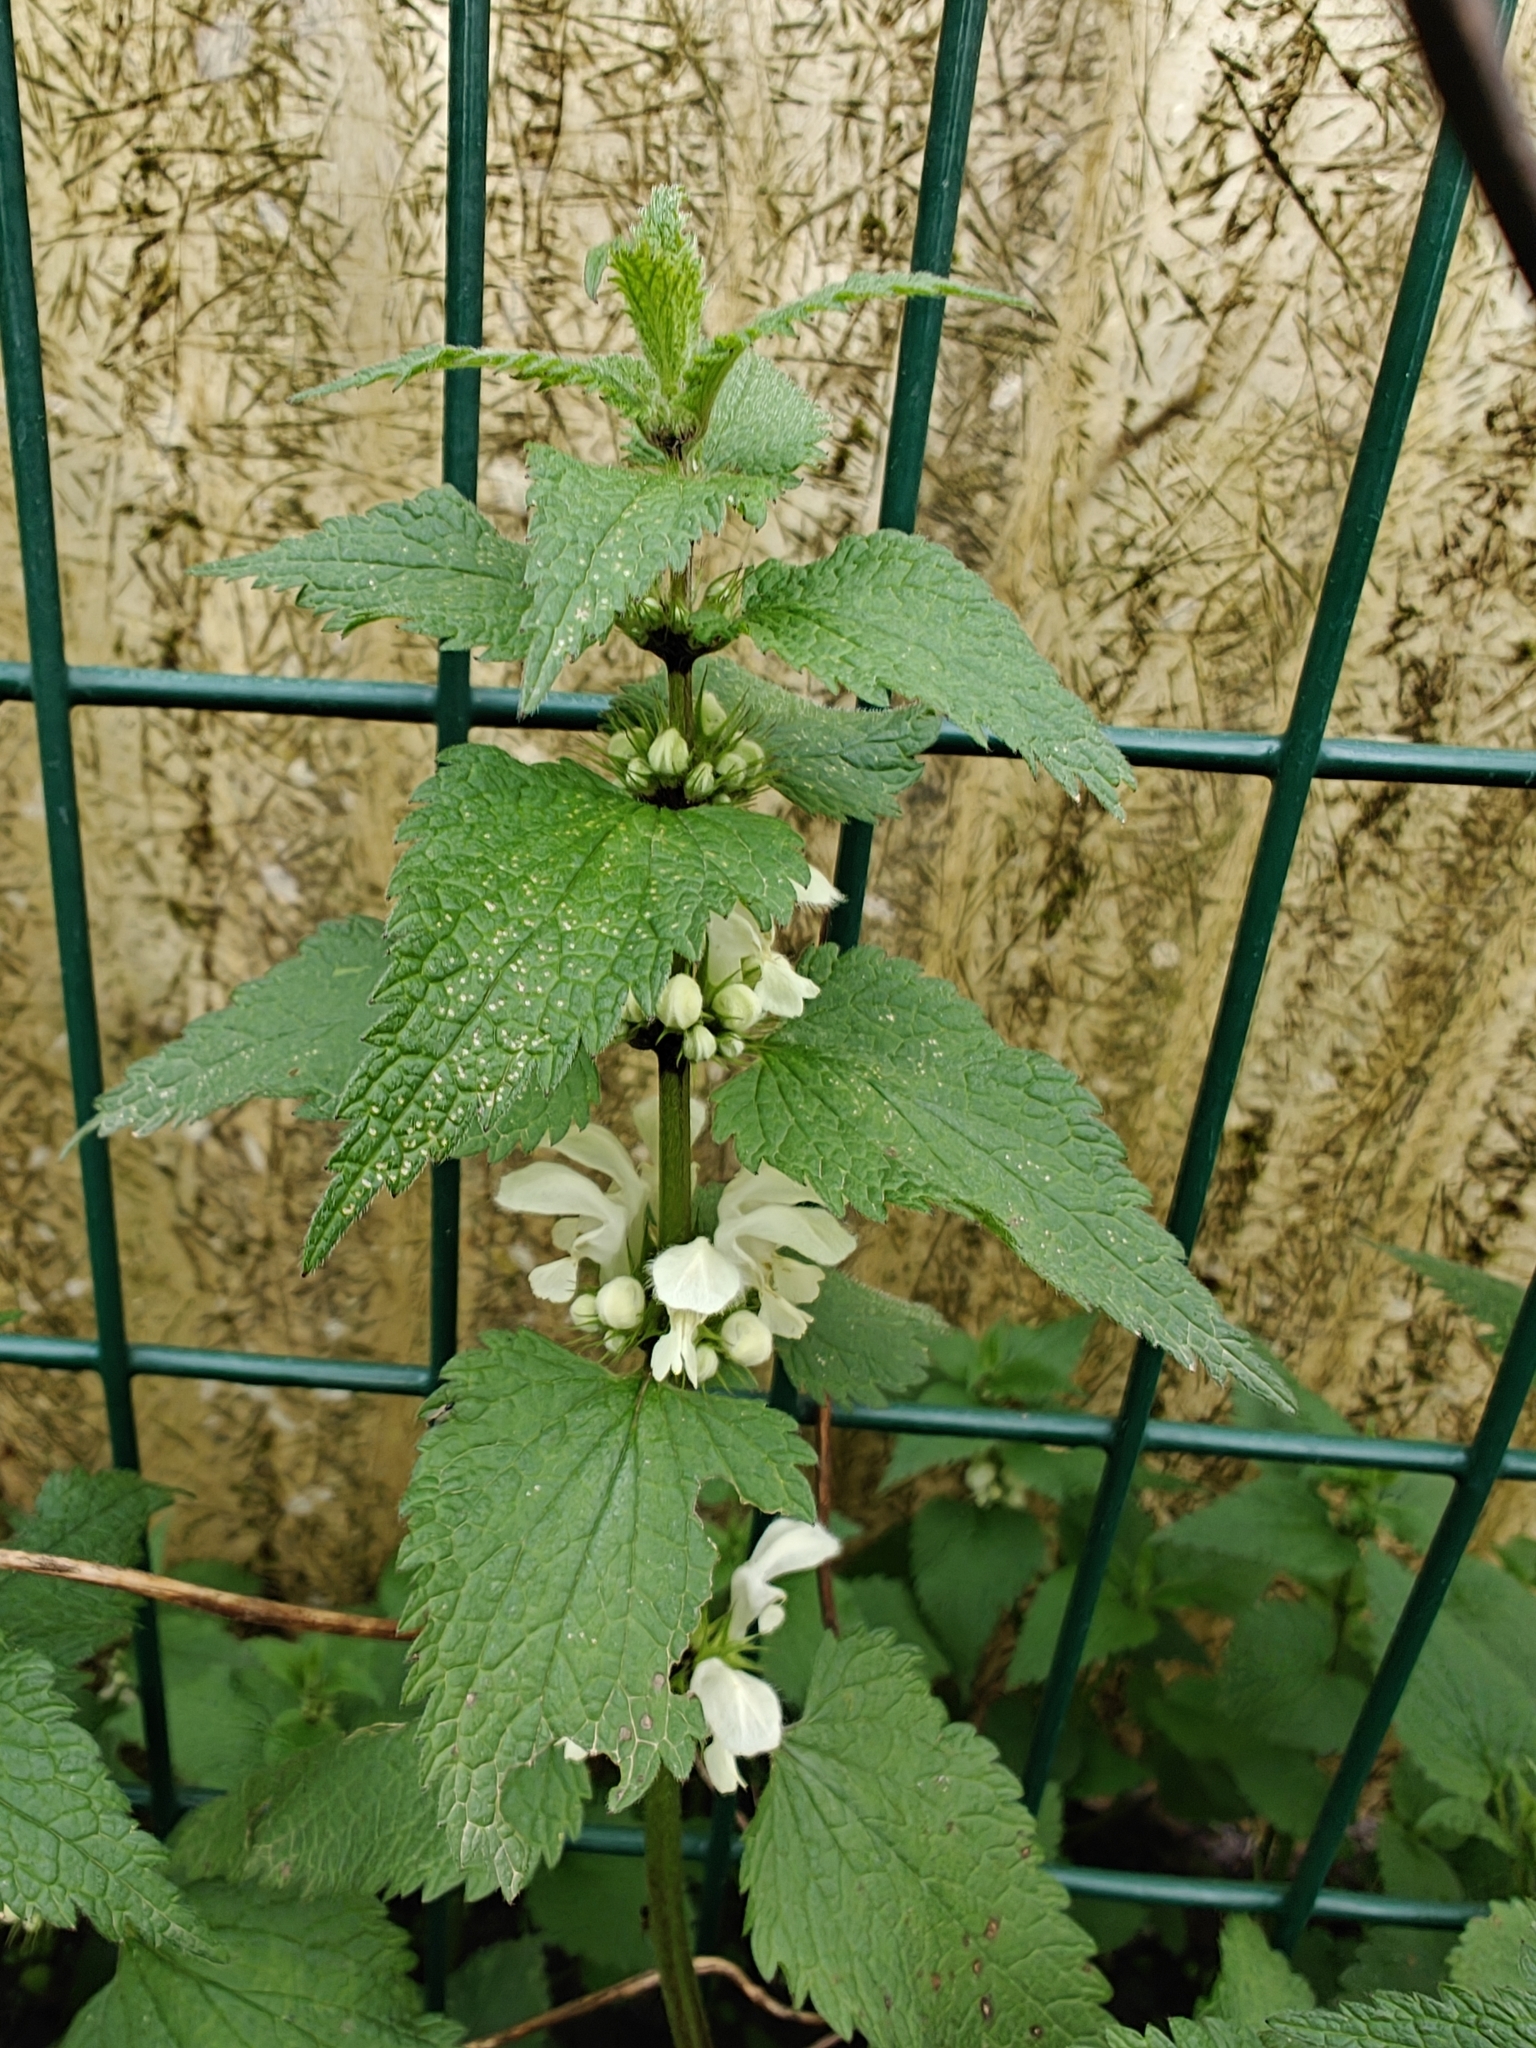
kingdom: Plantae
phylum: Tracheophyta
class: Magnoliopsida
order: Lamiales
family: Lamiaceae
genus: Lamium
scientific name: Lamium album
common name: White dead-nettle
